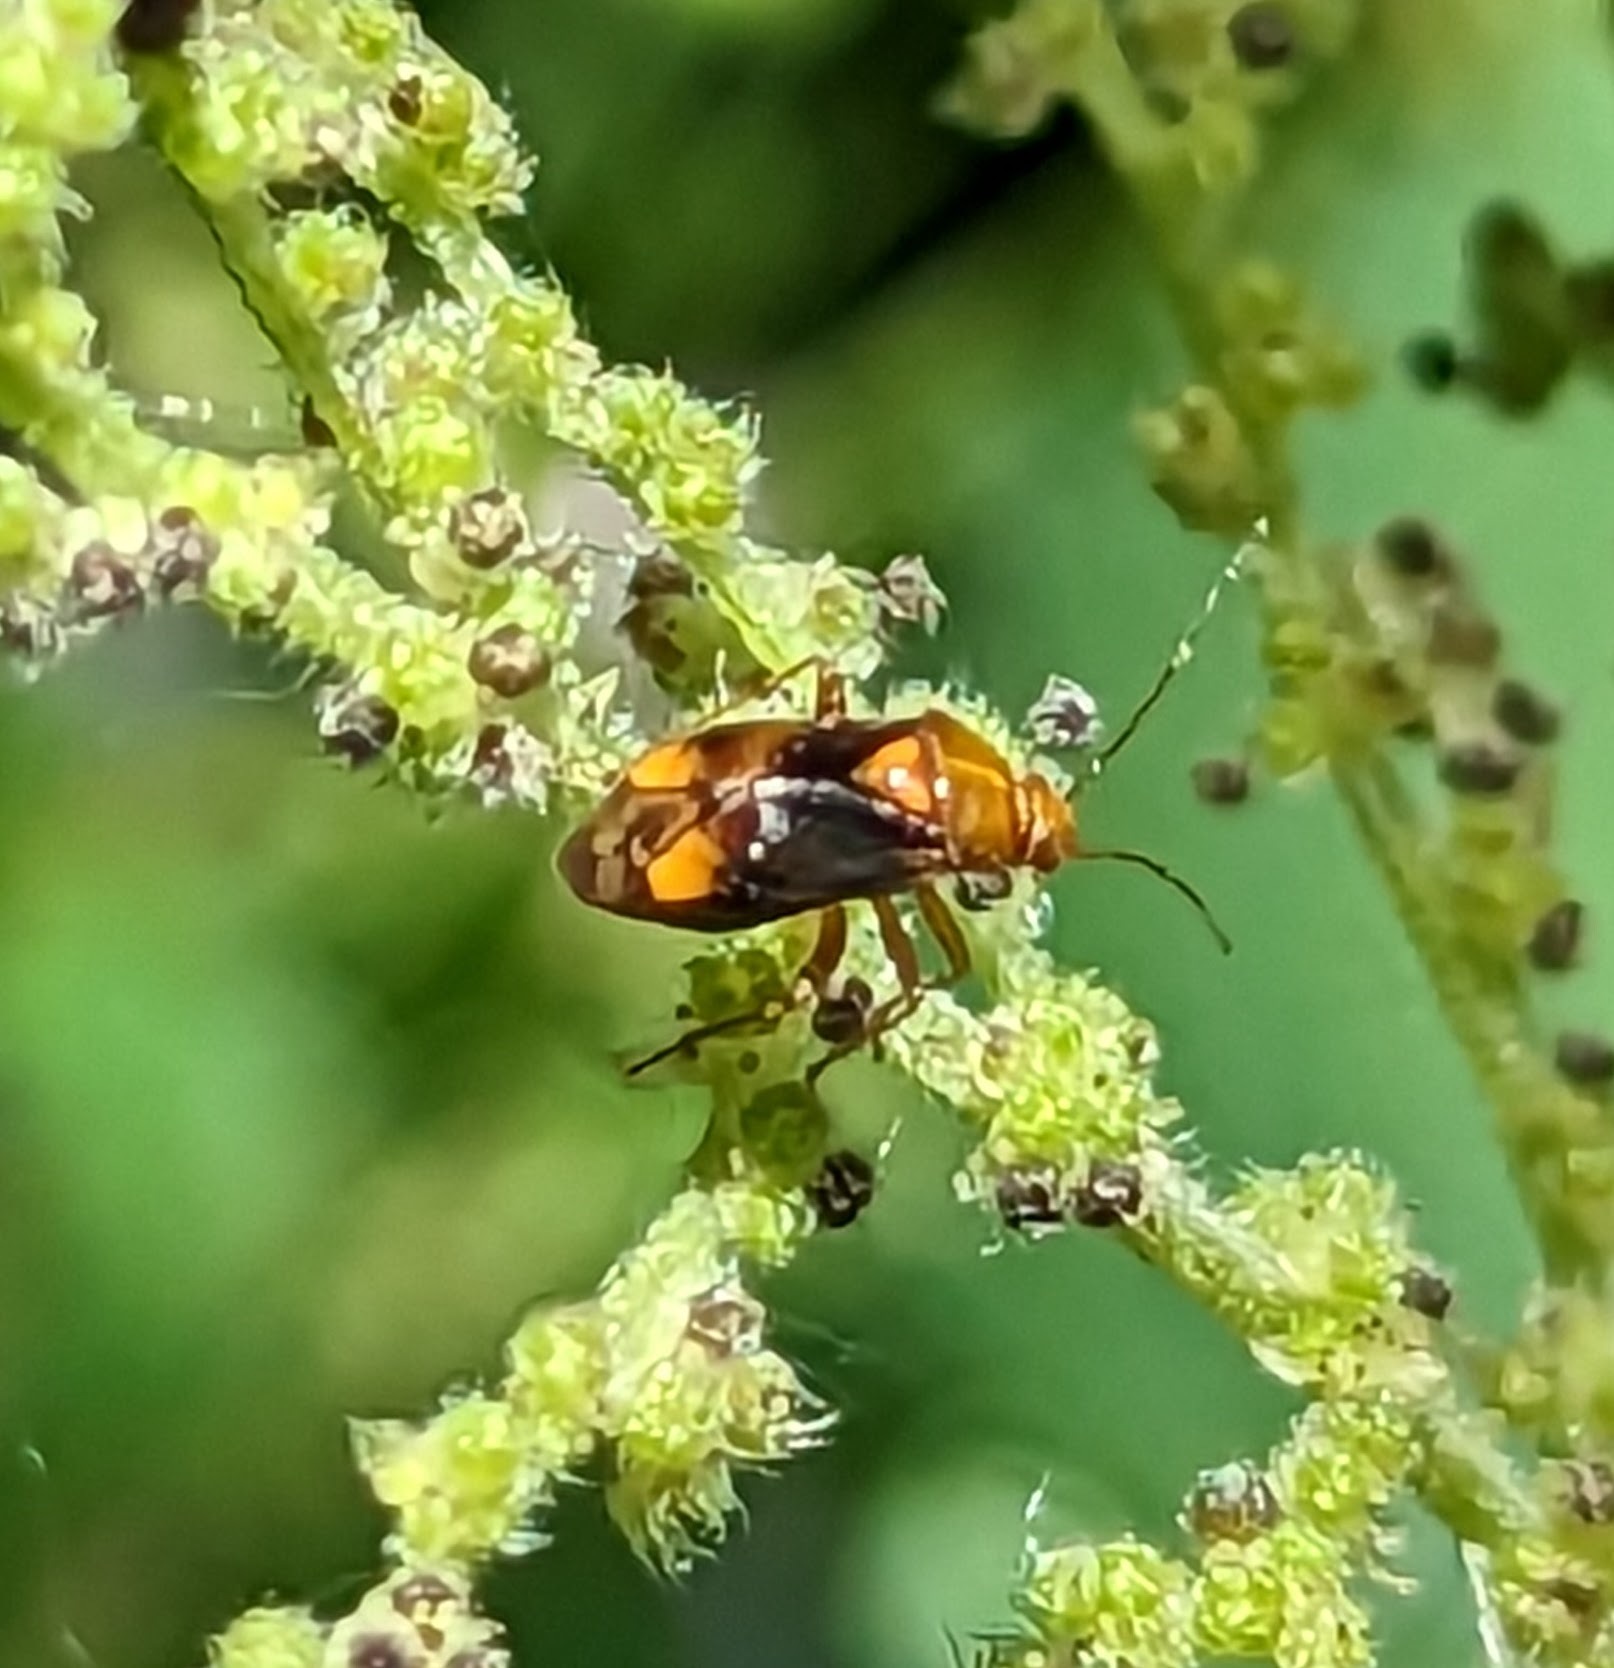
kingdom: Animalia
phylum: Arthropoda
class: Insecta
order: Hemiptera
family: Miridae
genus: Liocoris
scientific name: Liocoris tripustulatus
